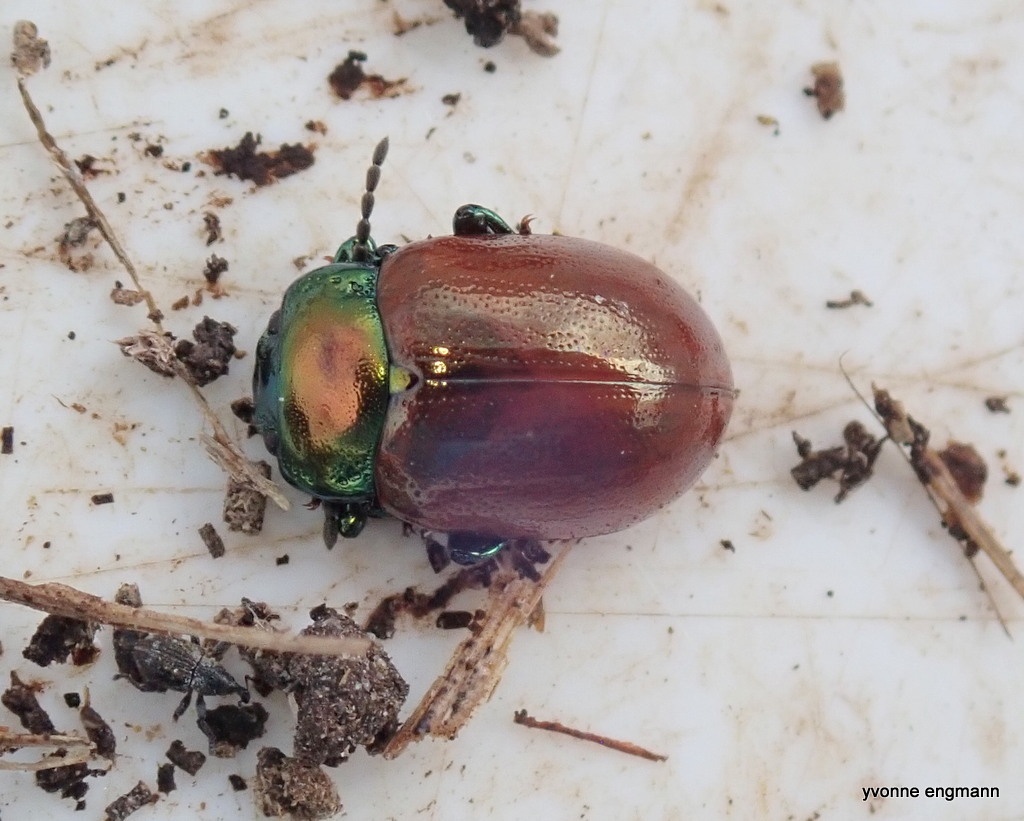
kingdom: Animalia
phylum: Arthropoda
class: Insecta
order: Coleoptera
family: Chrysomelidae
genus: Chrysomela
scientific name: Chrysomela polita
